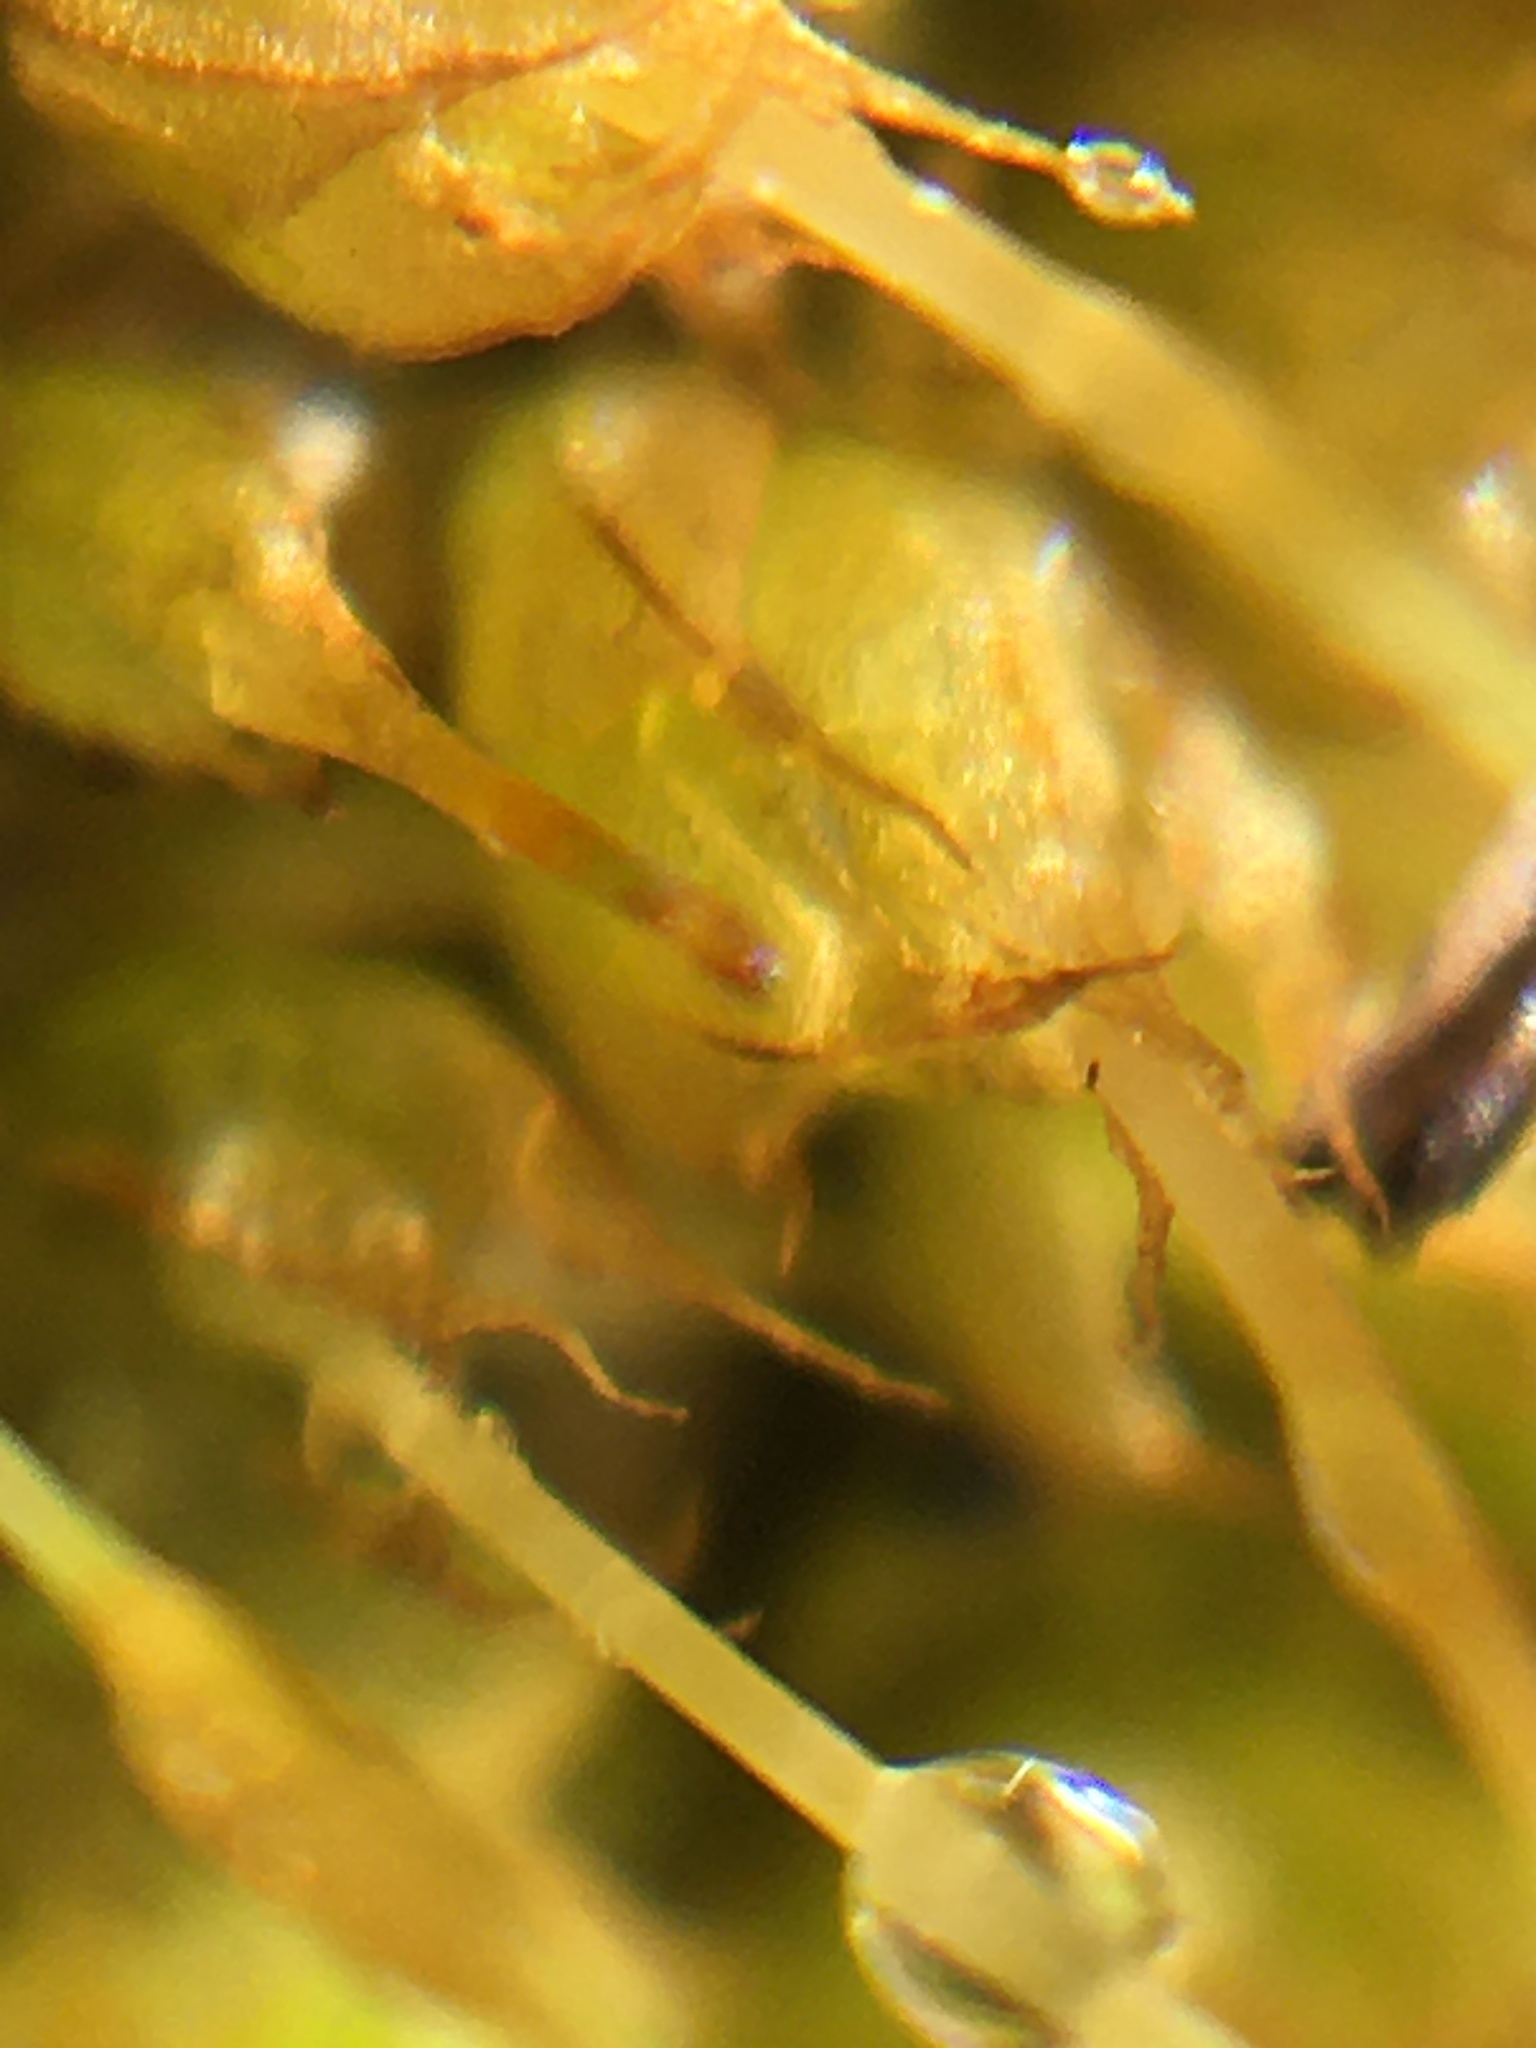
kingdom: Plantae
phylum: Bryophyta
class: Bryopsida
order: Funariales
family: Funariaceae
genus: Funaria
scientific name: Funaria hygrometrica
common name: Common cord moss
